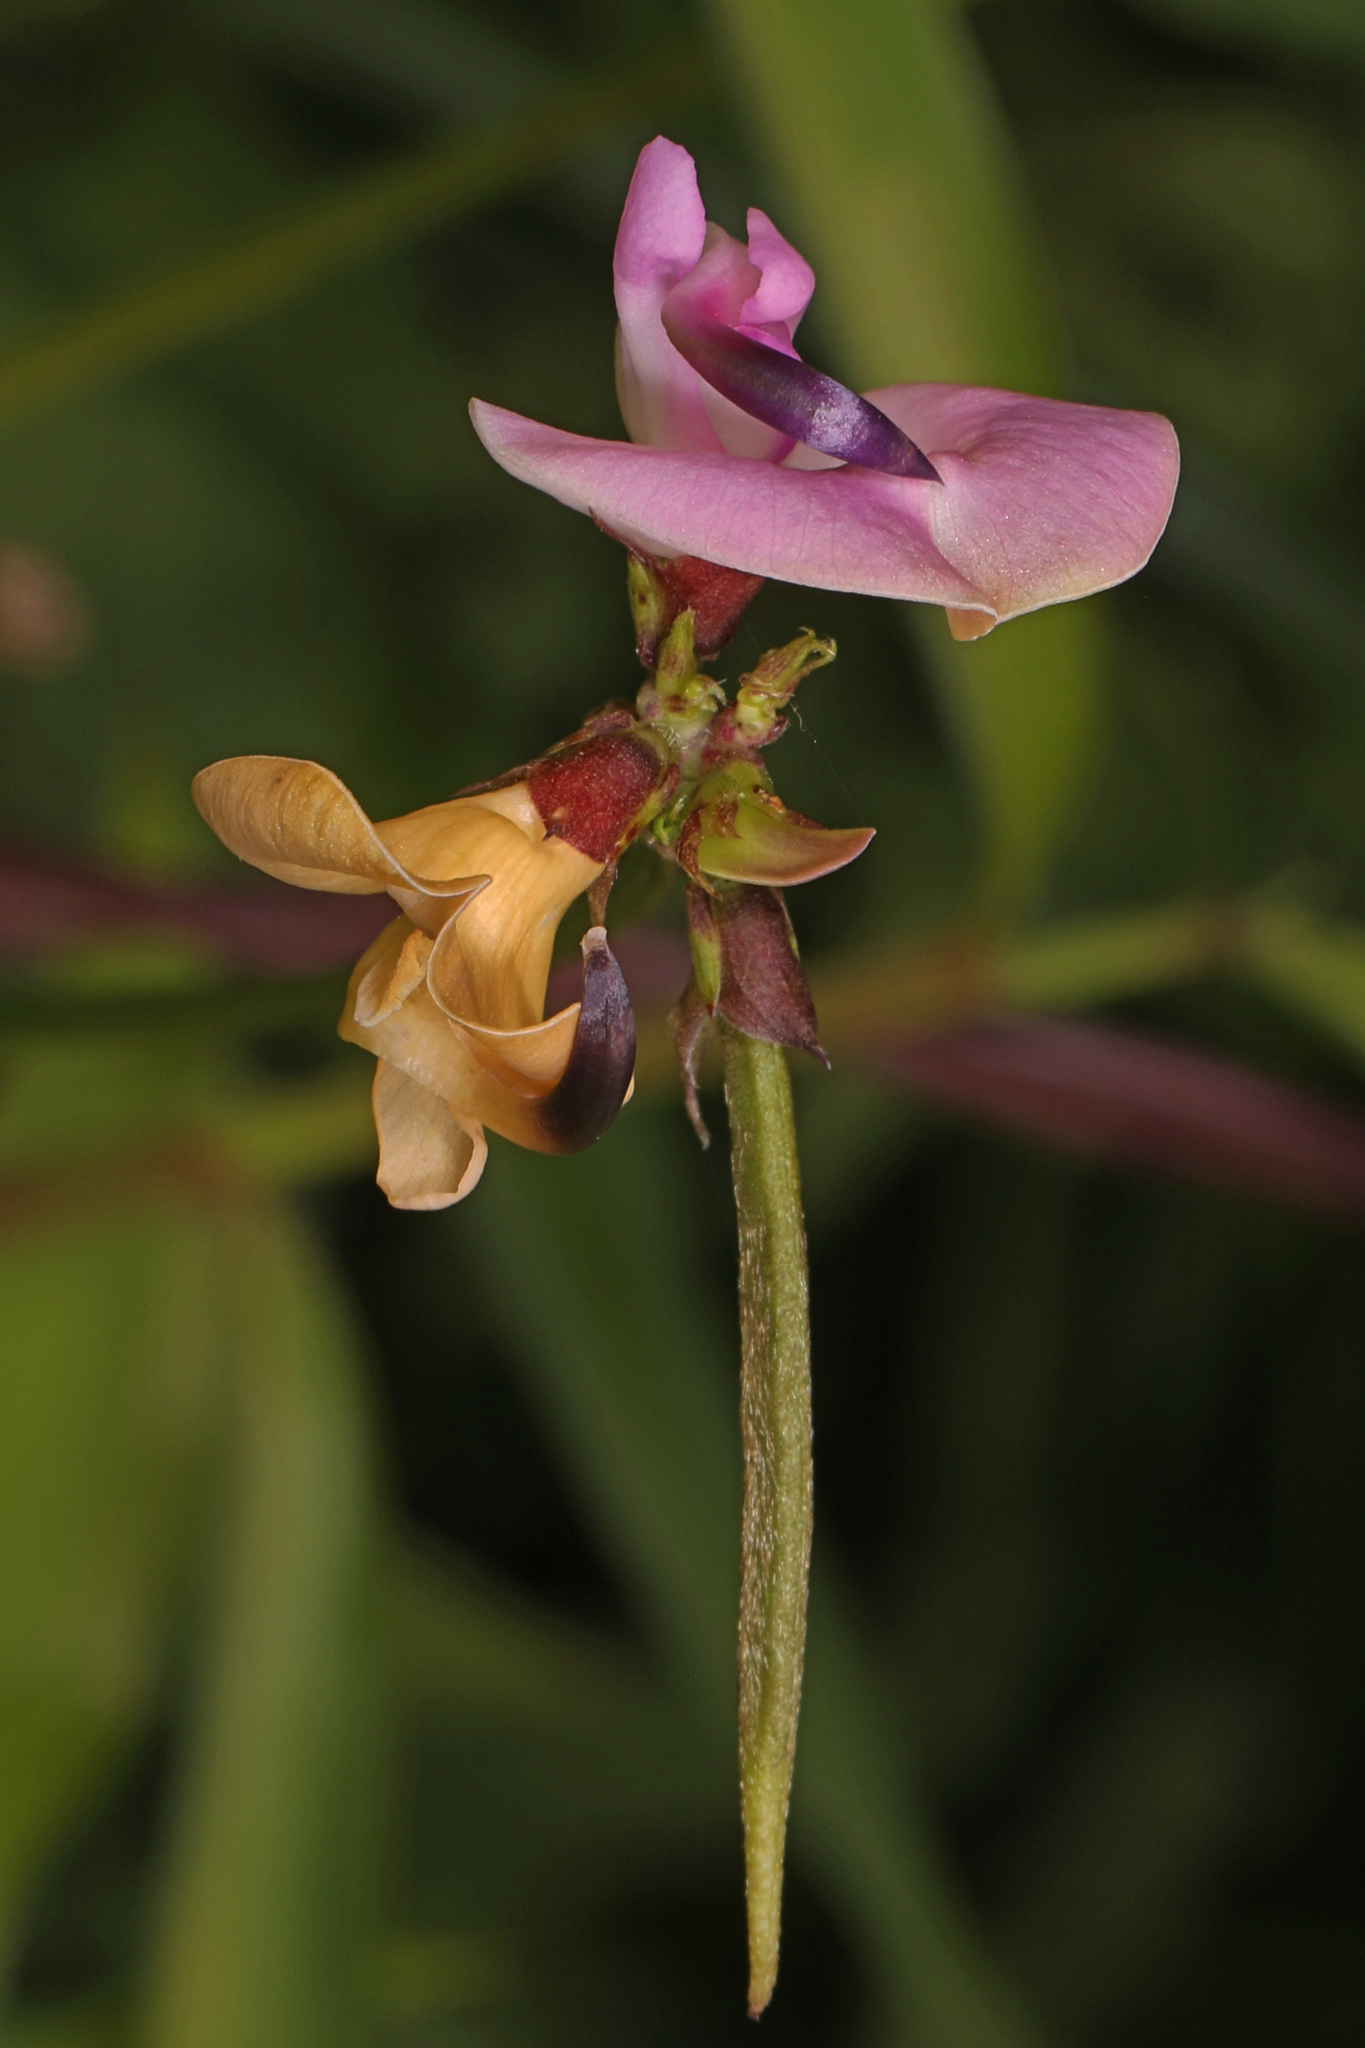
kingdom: Plantae
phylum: Tracheophyta
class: Magnoliopsida
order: Fabales
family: Fabaceae
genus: Strophostyles
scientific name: Strophostyles helvola
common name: Trailing wild bean
